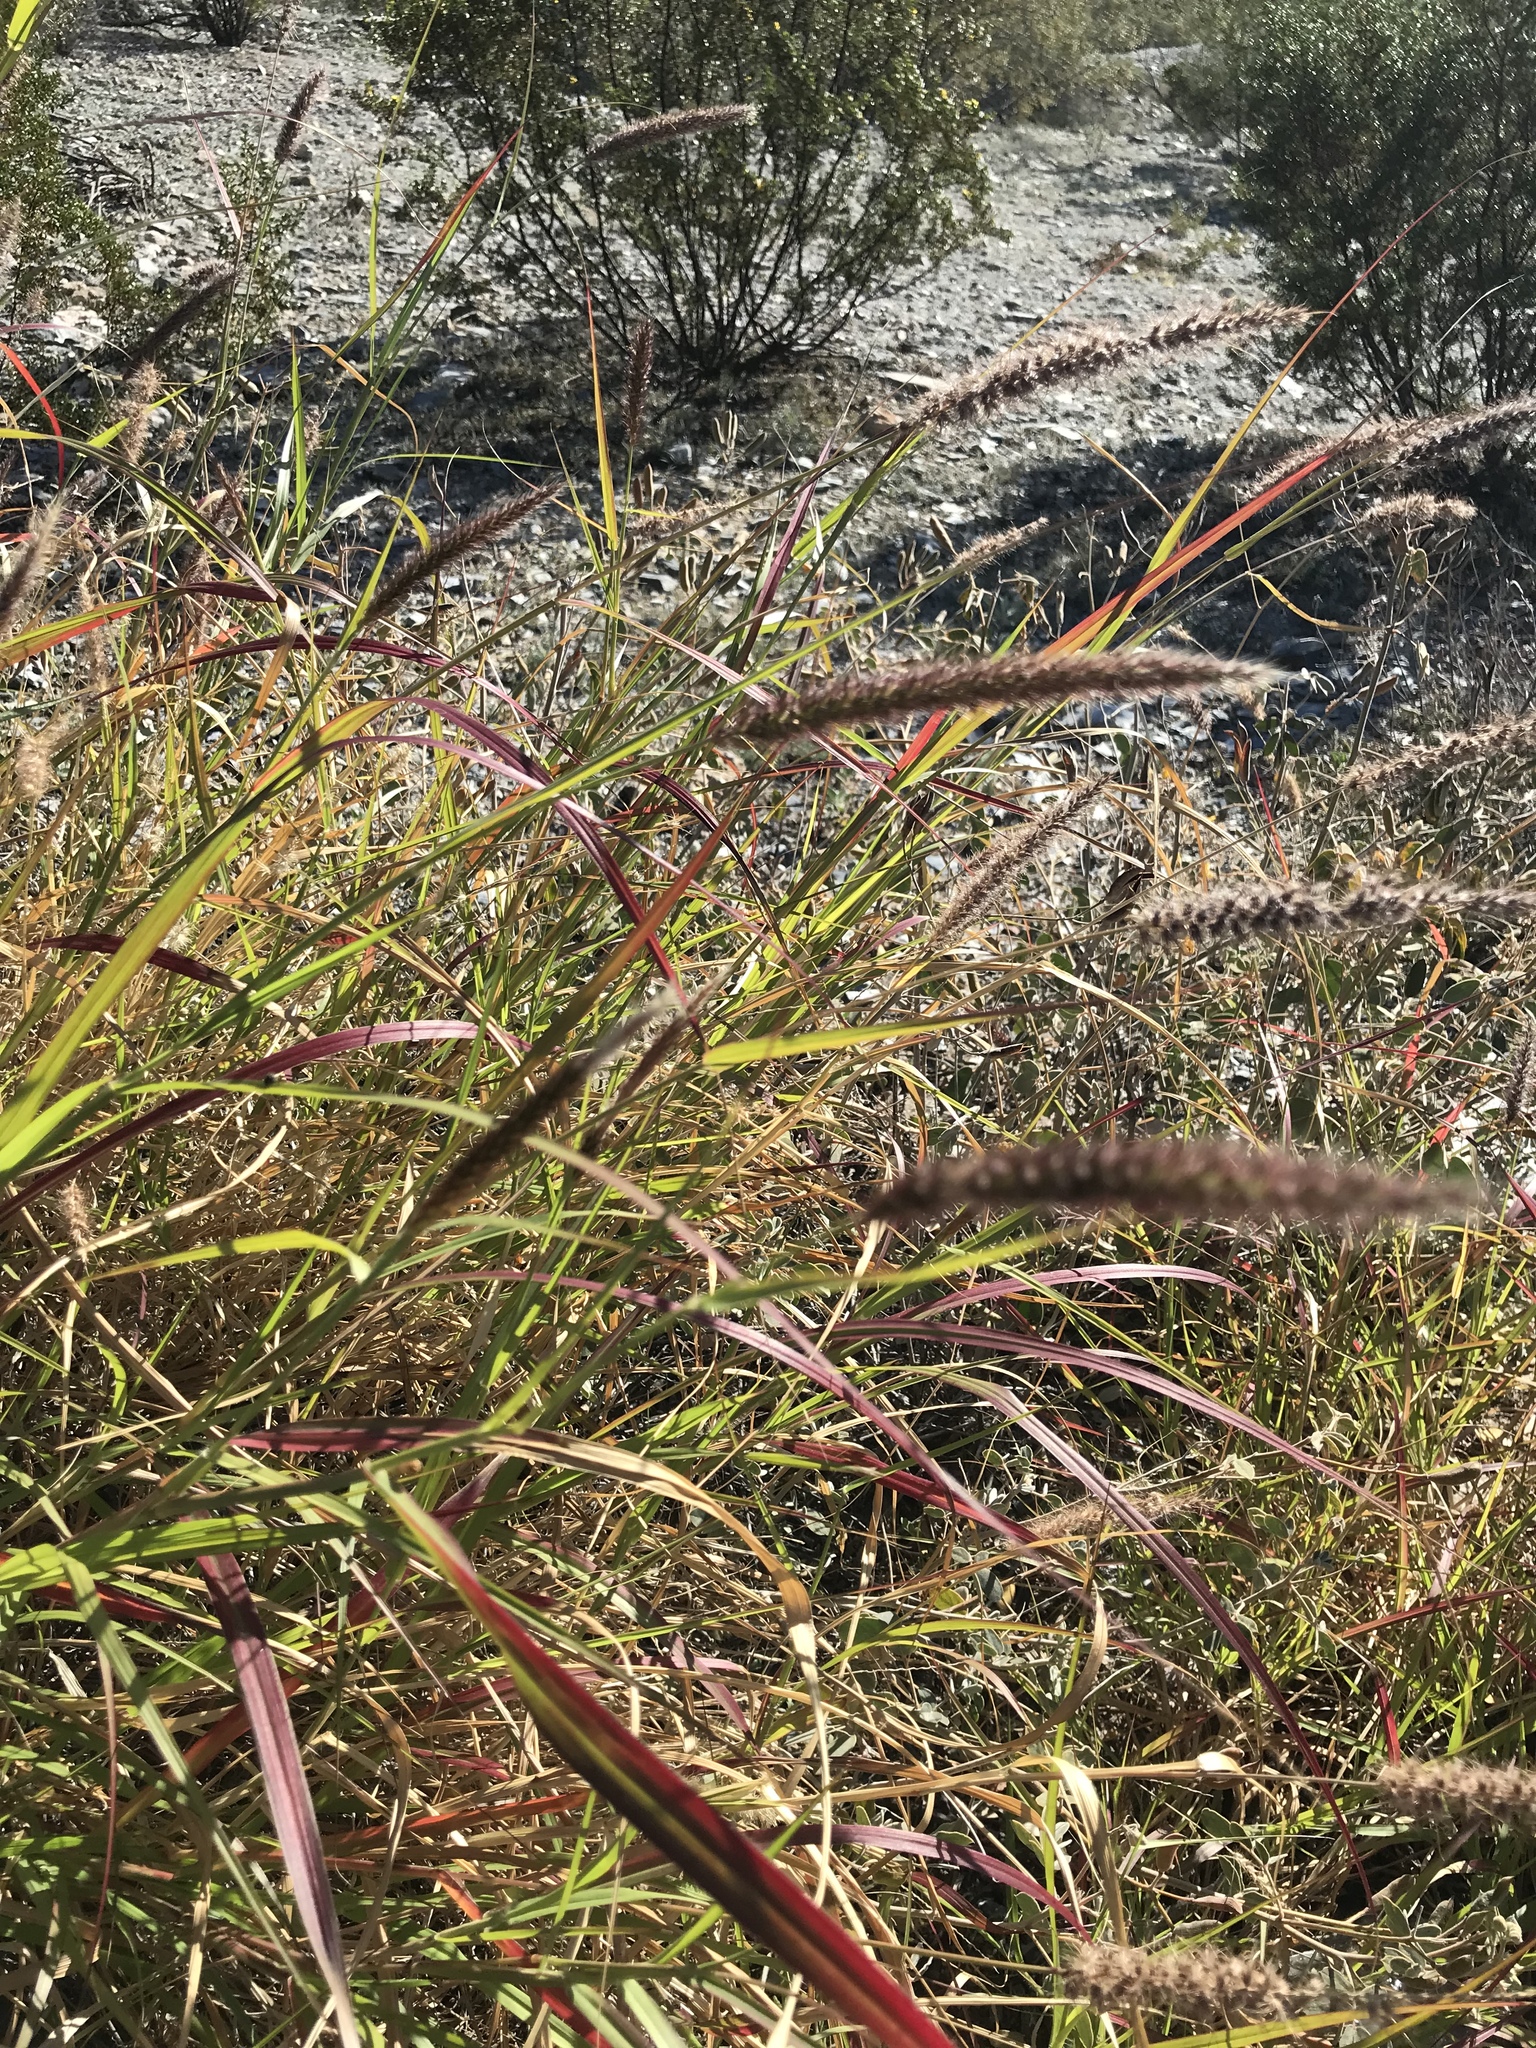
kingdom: Plantae
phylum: Tracheophyta
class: Liliopsida
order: Poales
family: Poaceae
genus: Cenchrus
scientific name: Cenchrus ciliaris
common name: Buffelgrass
